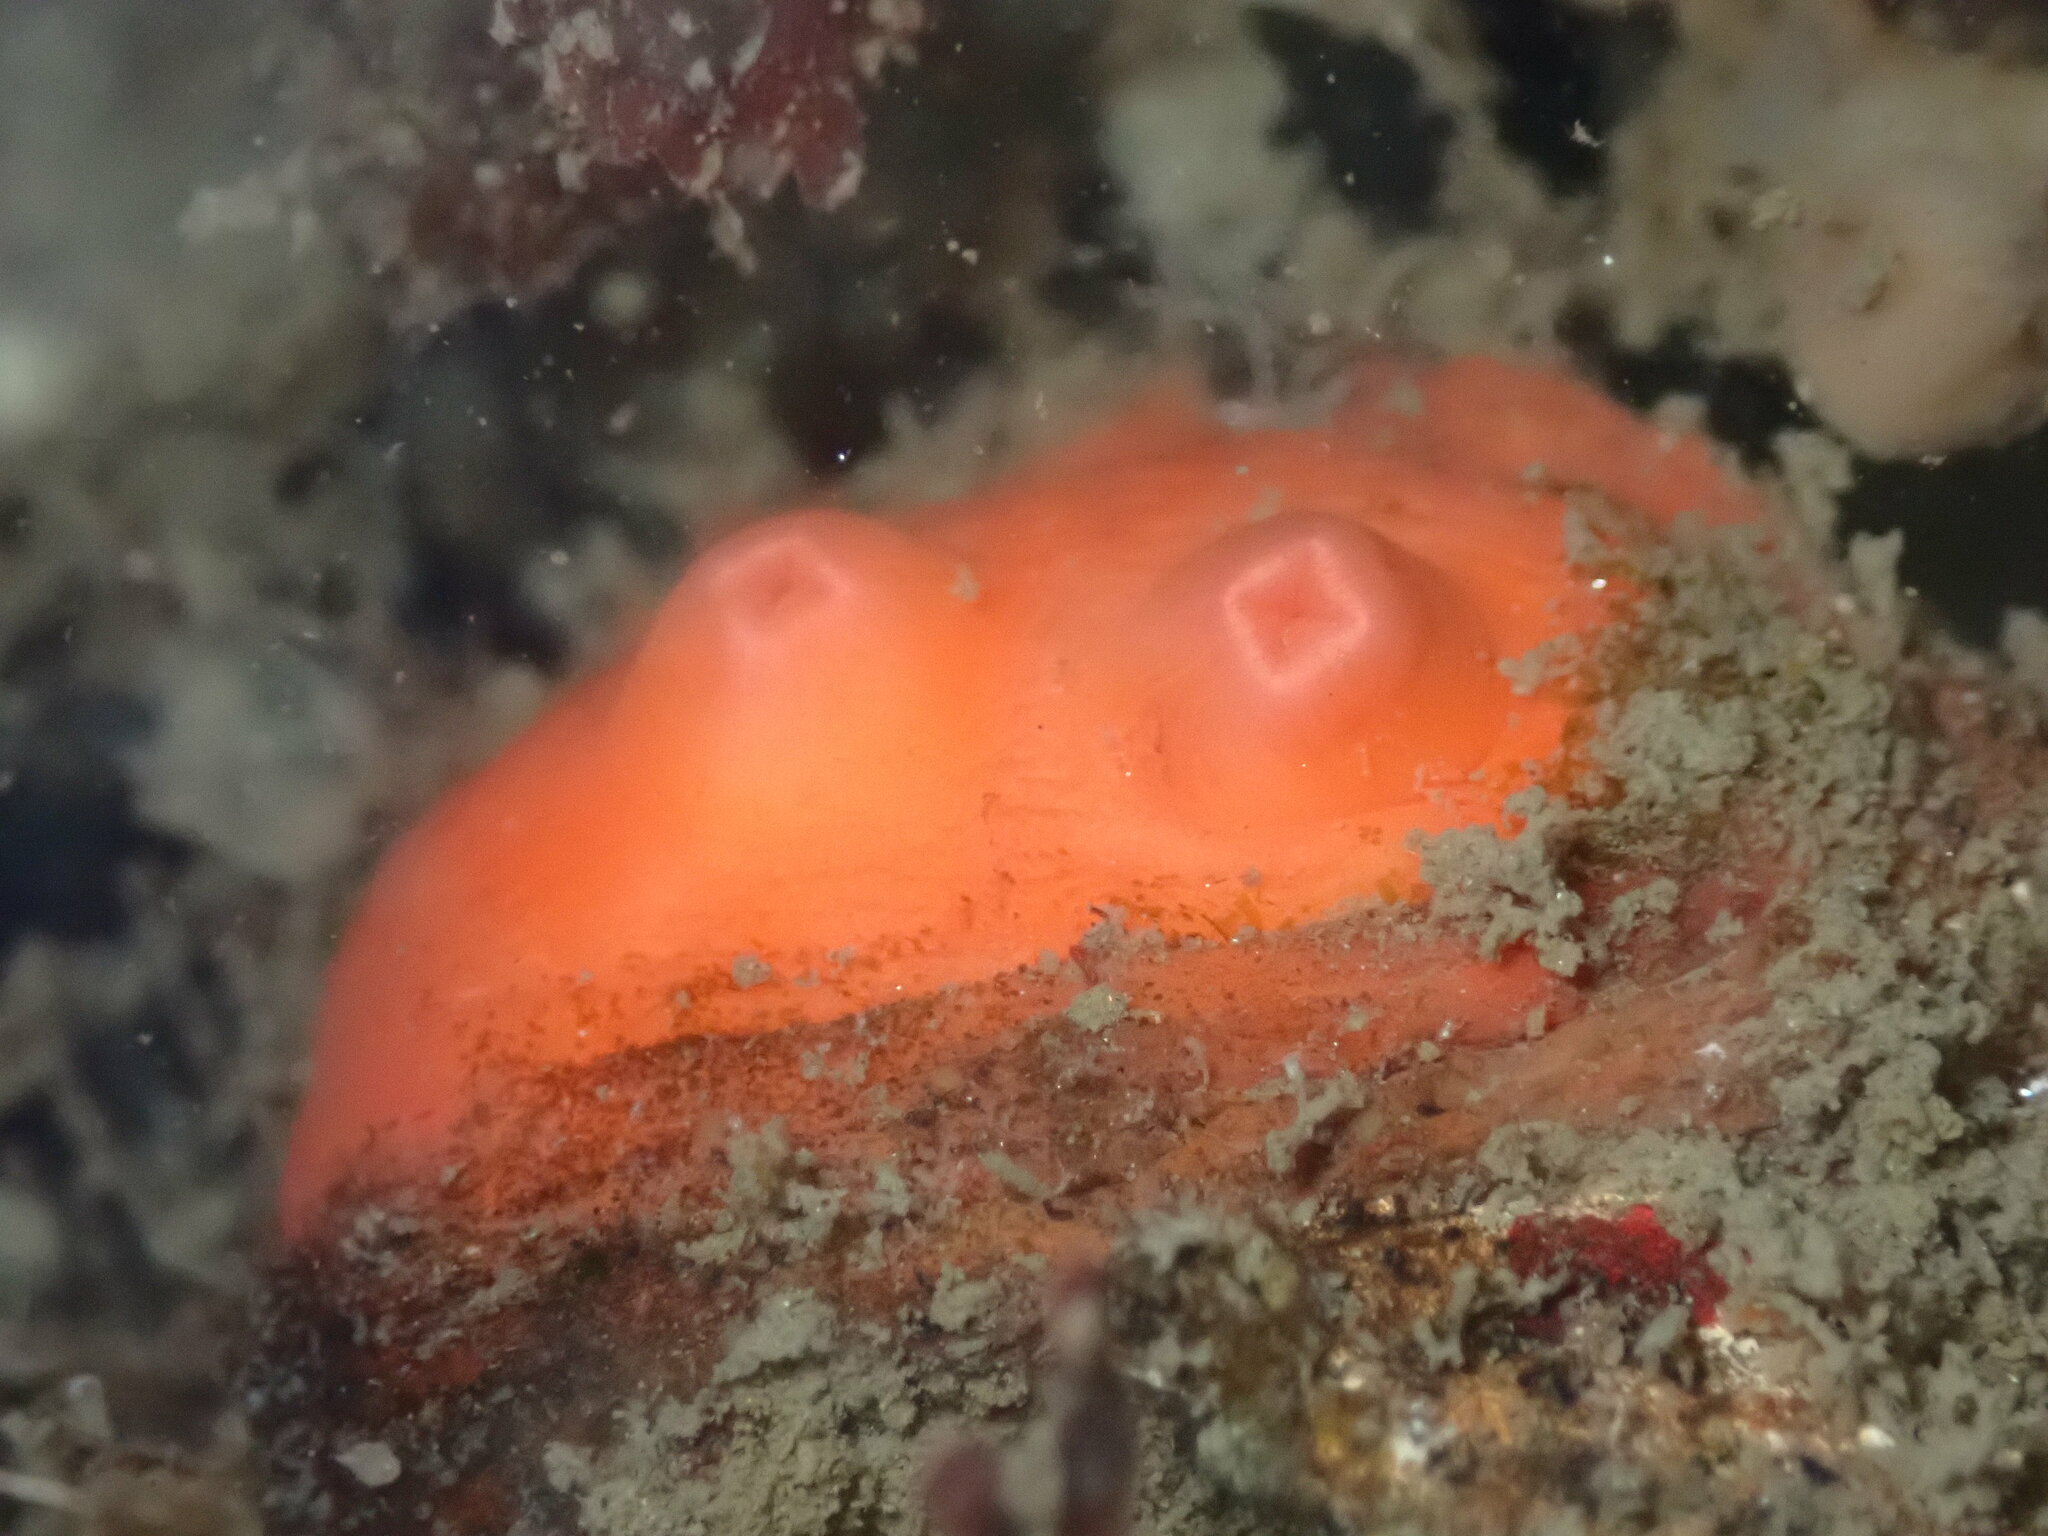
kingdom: Animalia
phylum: Chordata
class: Ascidiacea
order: Stolidobranchia
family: Styelidae
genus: Cnemidocarpa
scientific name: Cnemidocarpa finmarkiensis
